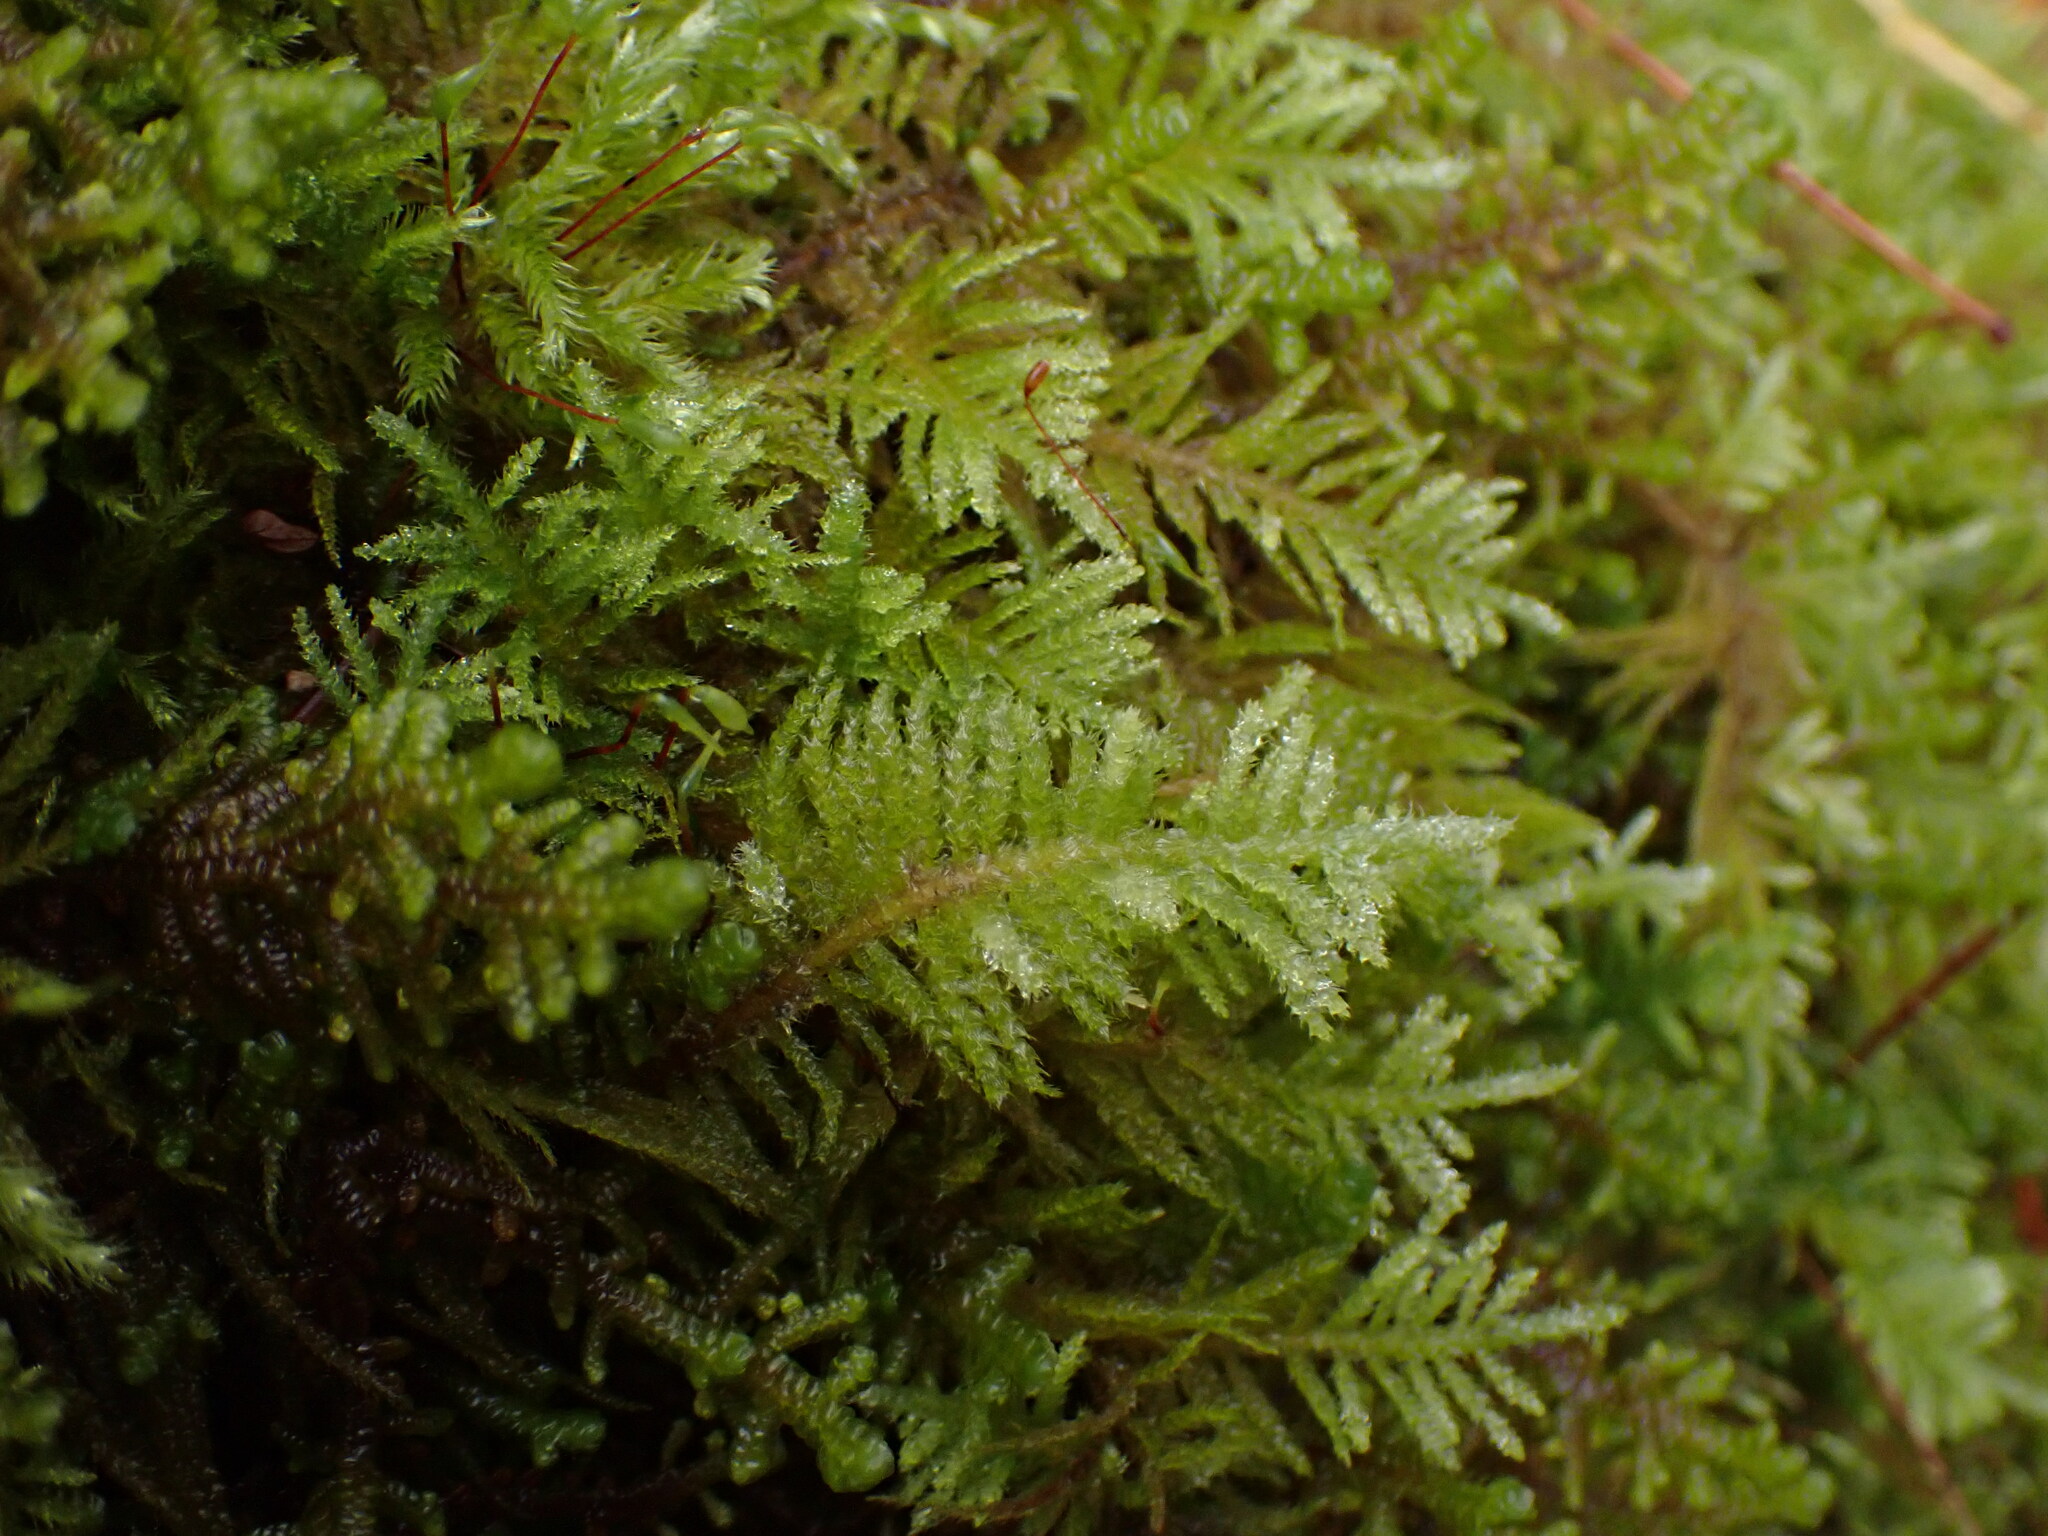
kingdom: Plantae
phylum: Bryophyta
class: Bryopsida
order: Hypnales
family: Brachytheciaceae
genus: Kindbergia
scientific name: Kindbergia oregana
